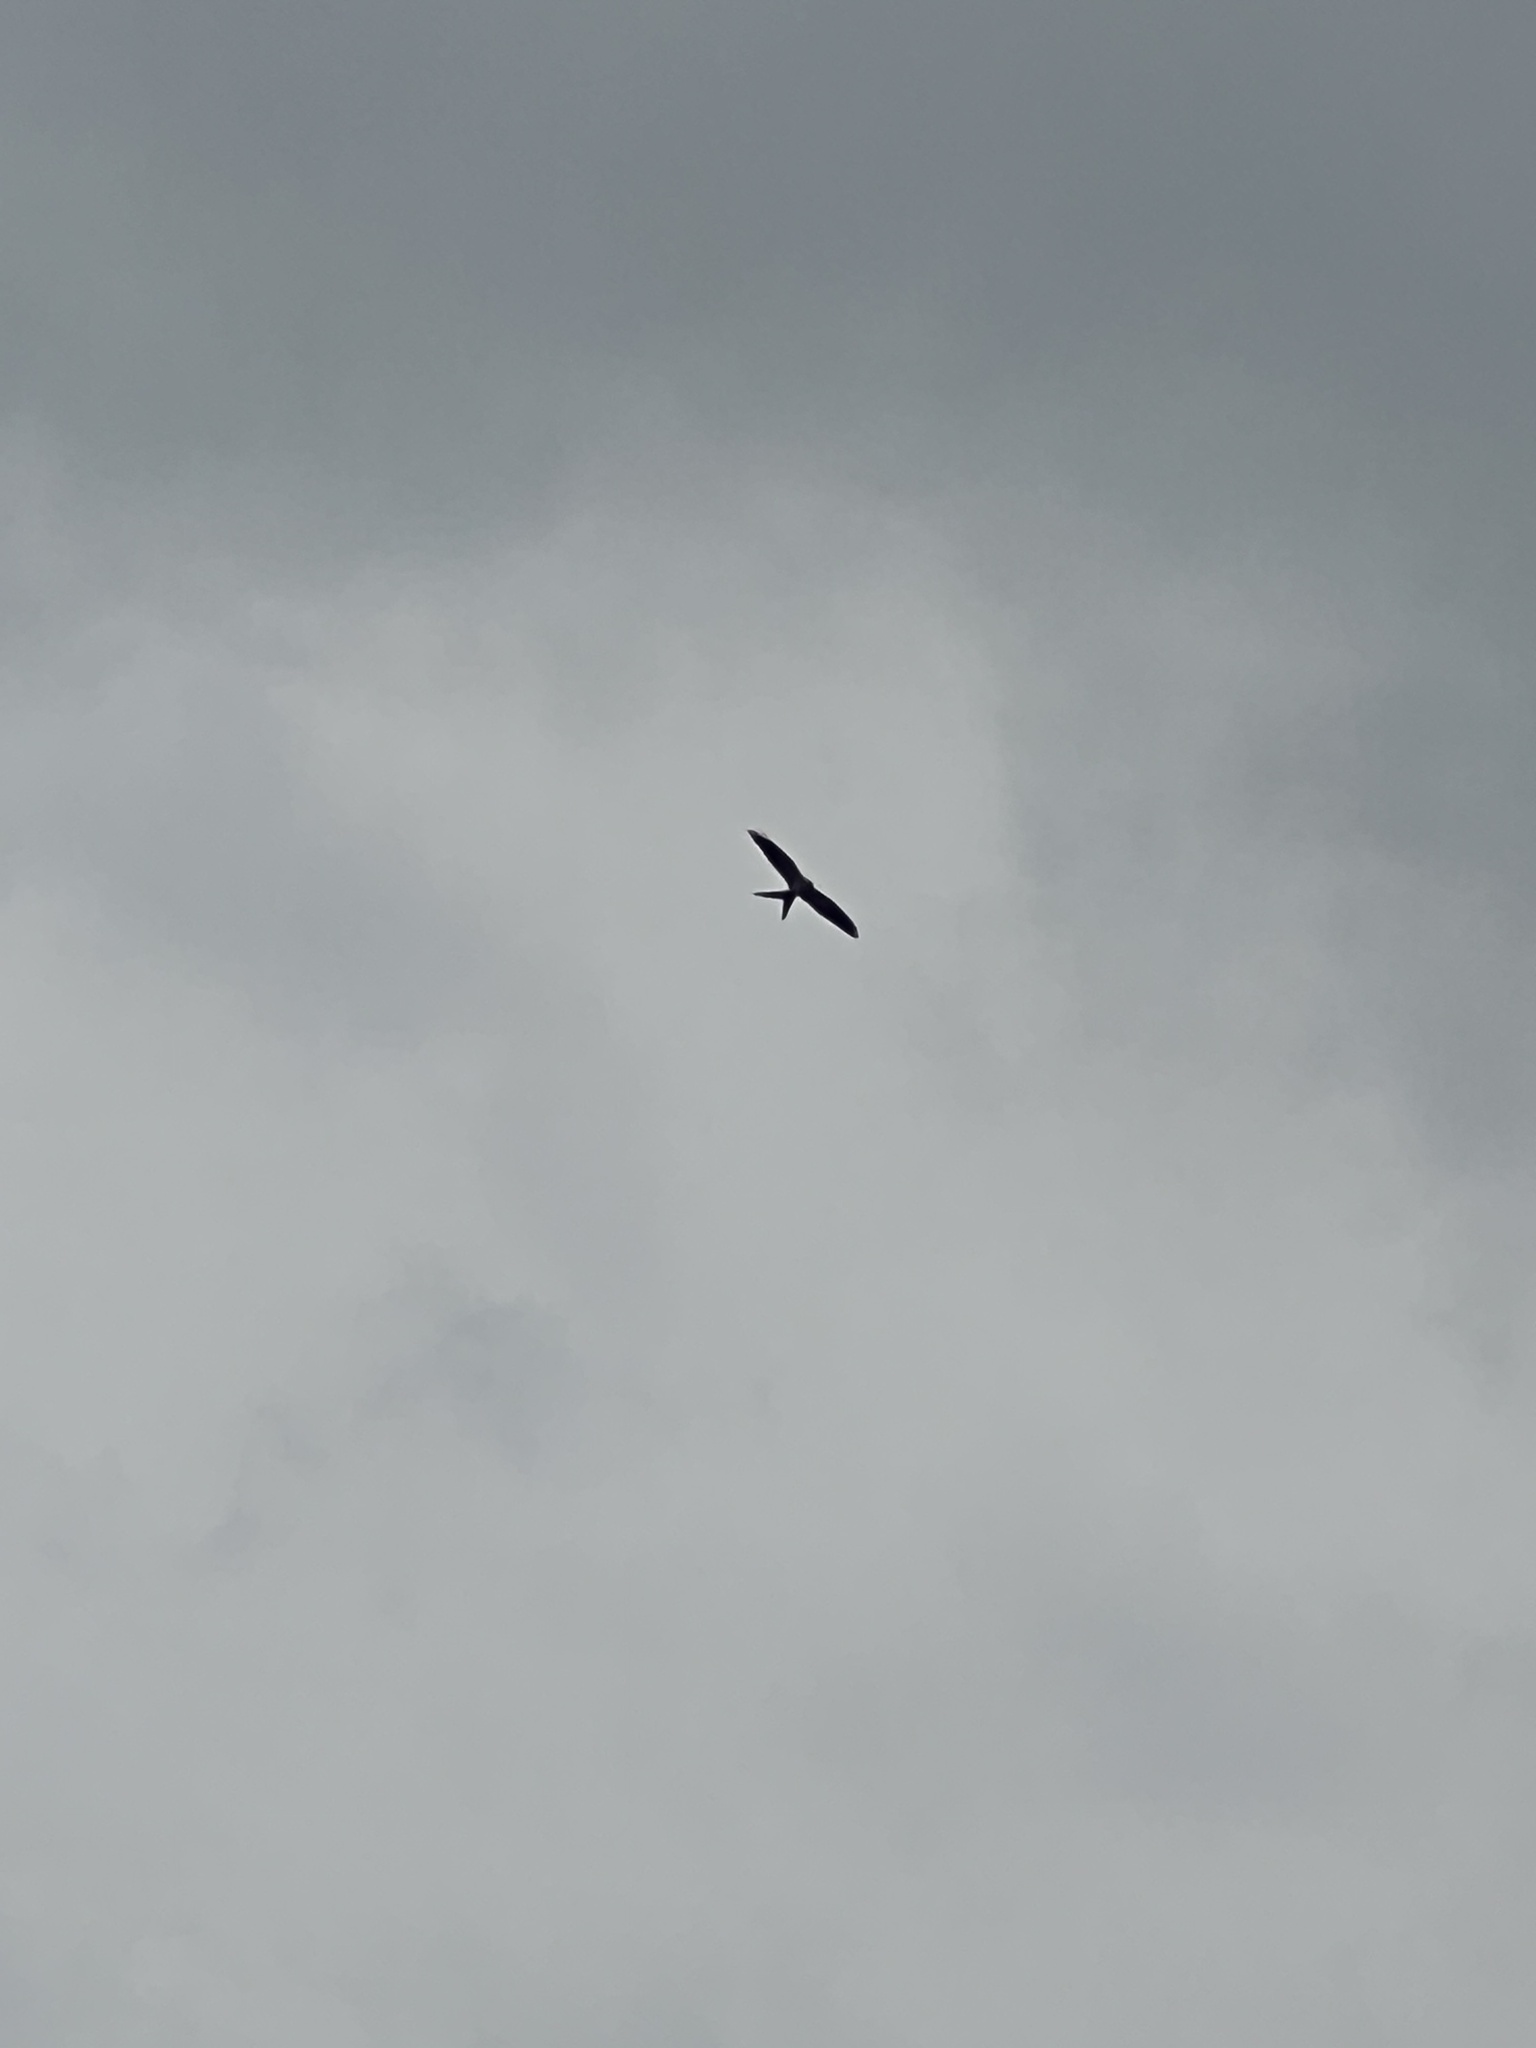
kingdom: Animalia
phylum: Chordata
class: Aves
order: Accipitriformes
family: Accipitridae
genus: Elanoides
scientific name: Elanoides forficatus
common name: Swallow-tailed kite
